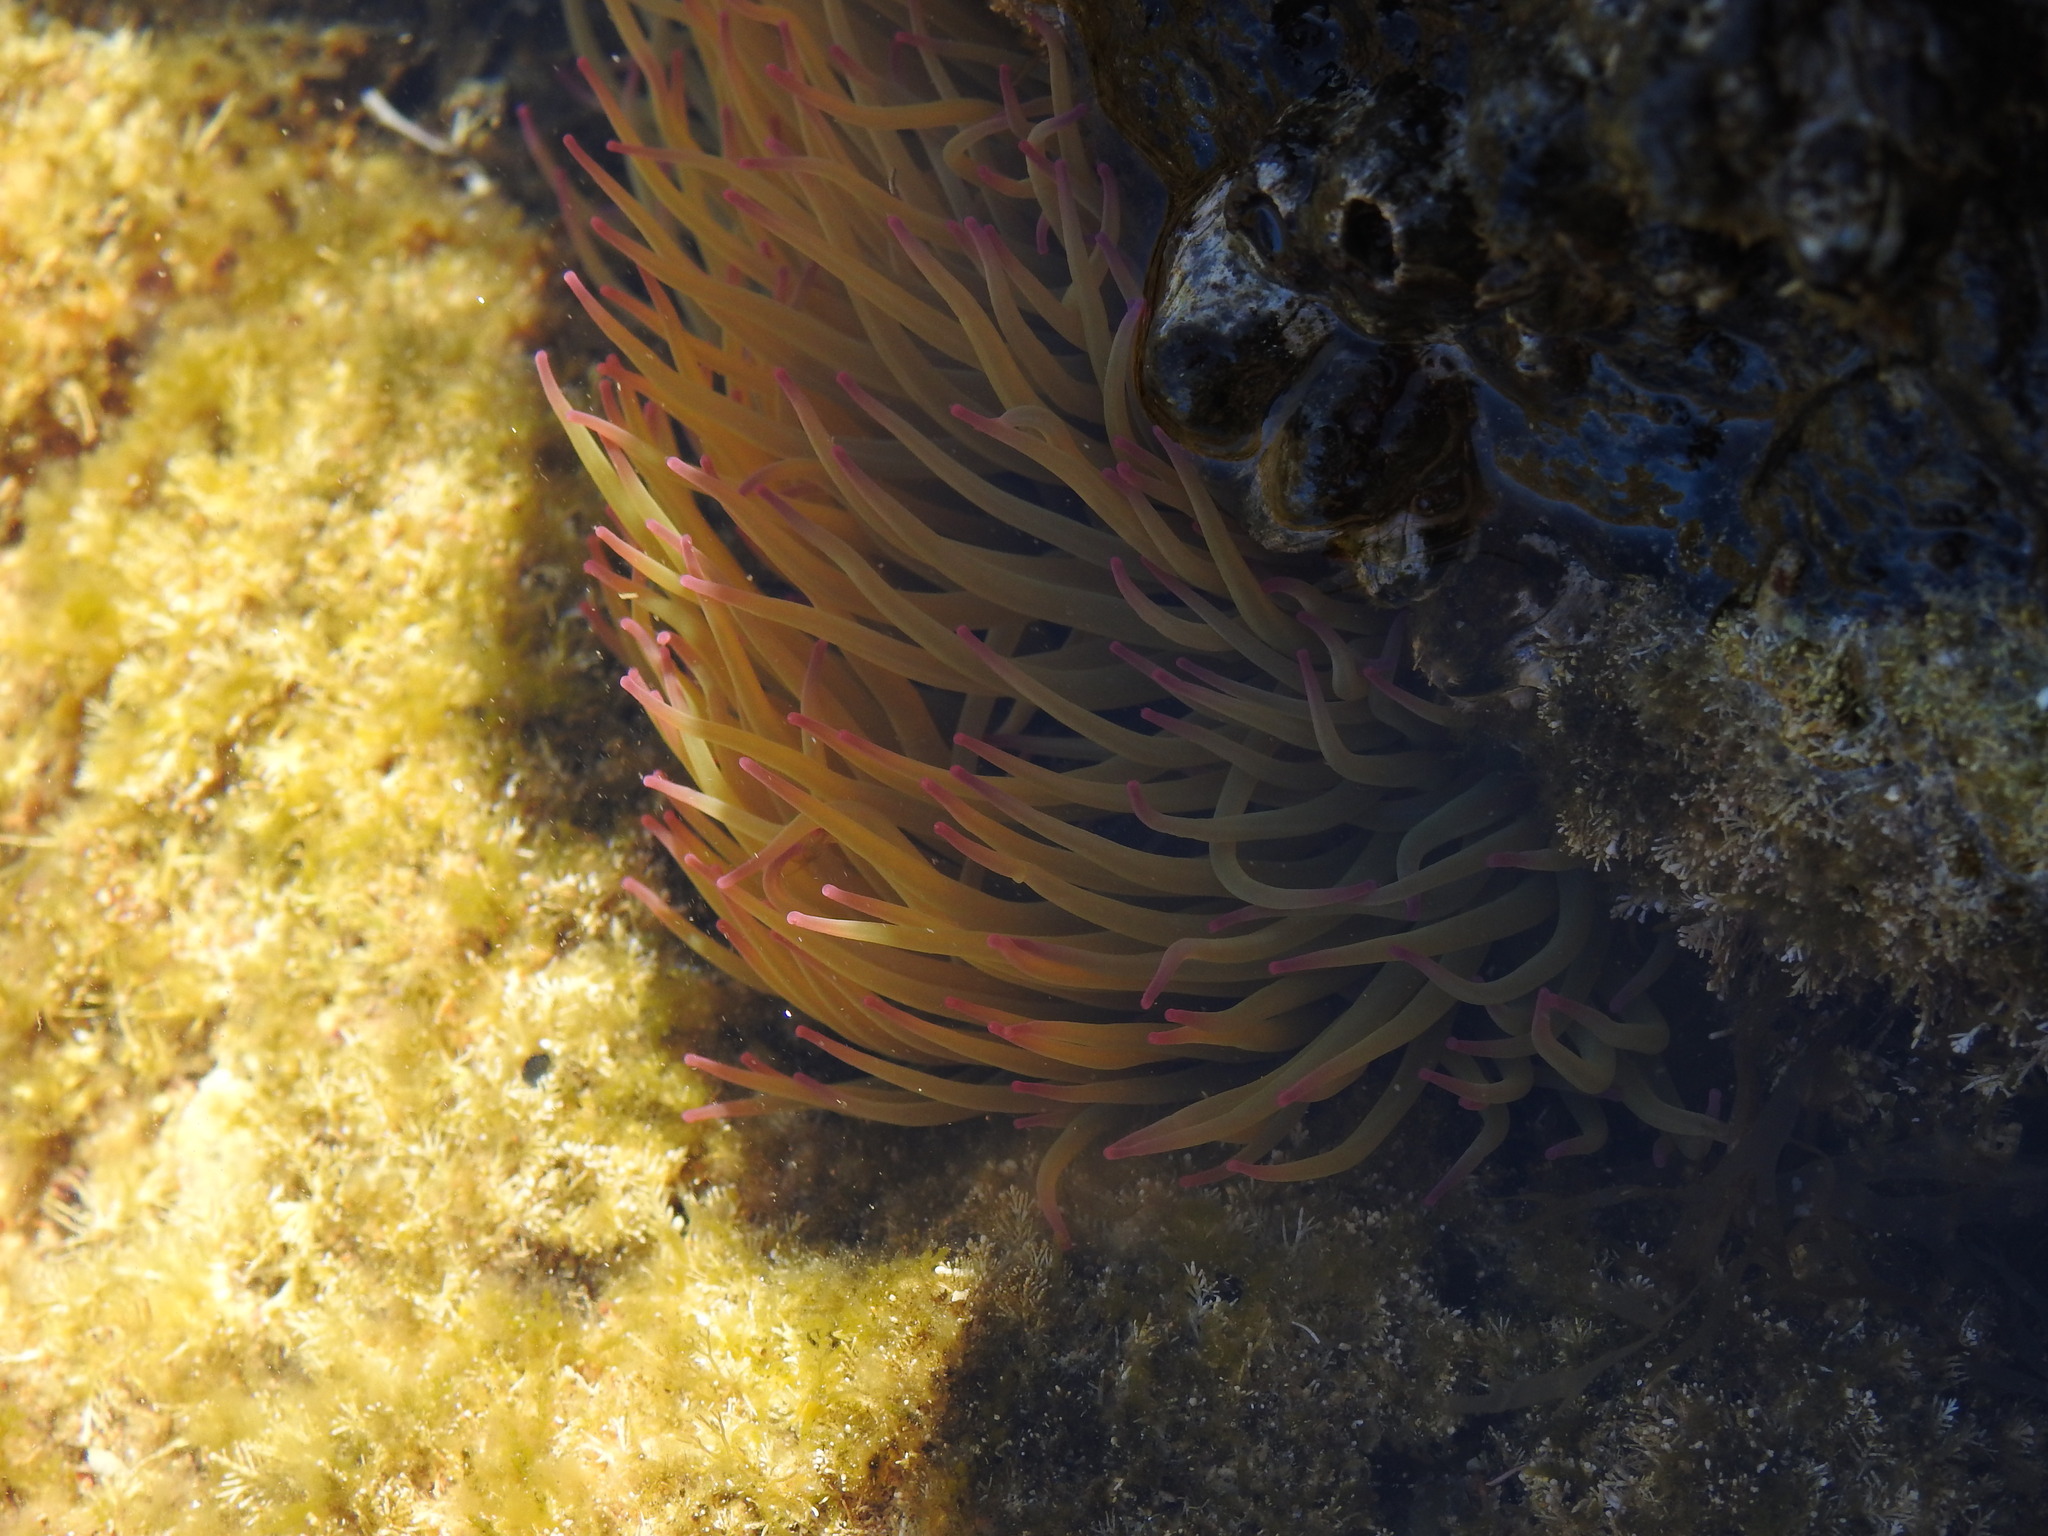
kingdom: Animalia
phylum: Cnidaria
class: Anthozoa
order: Actiniaria
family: Actiniidae
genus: Anemonia
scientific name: Anemonia viridis
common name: Snakelocks anemone
